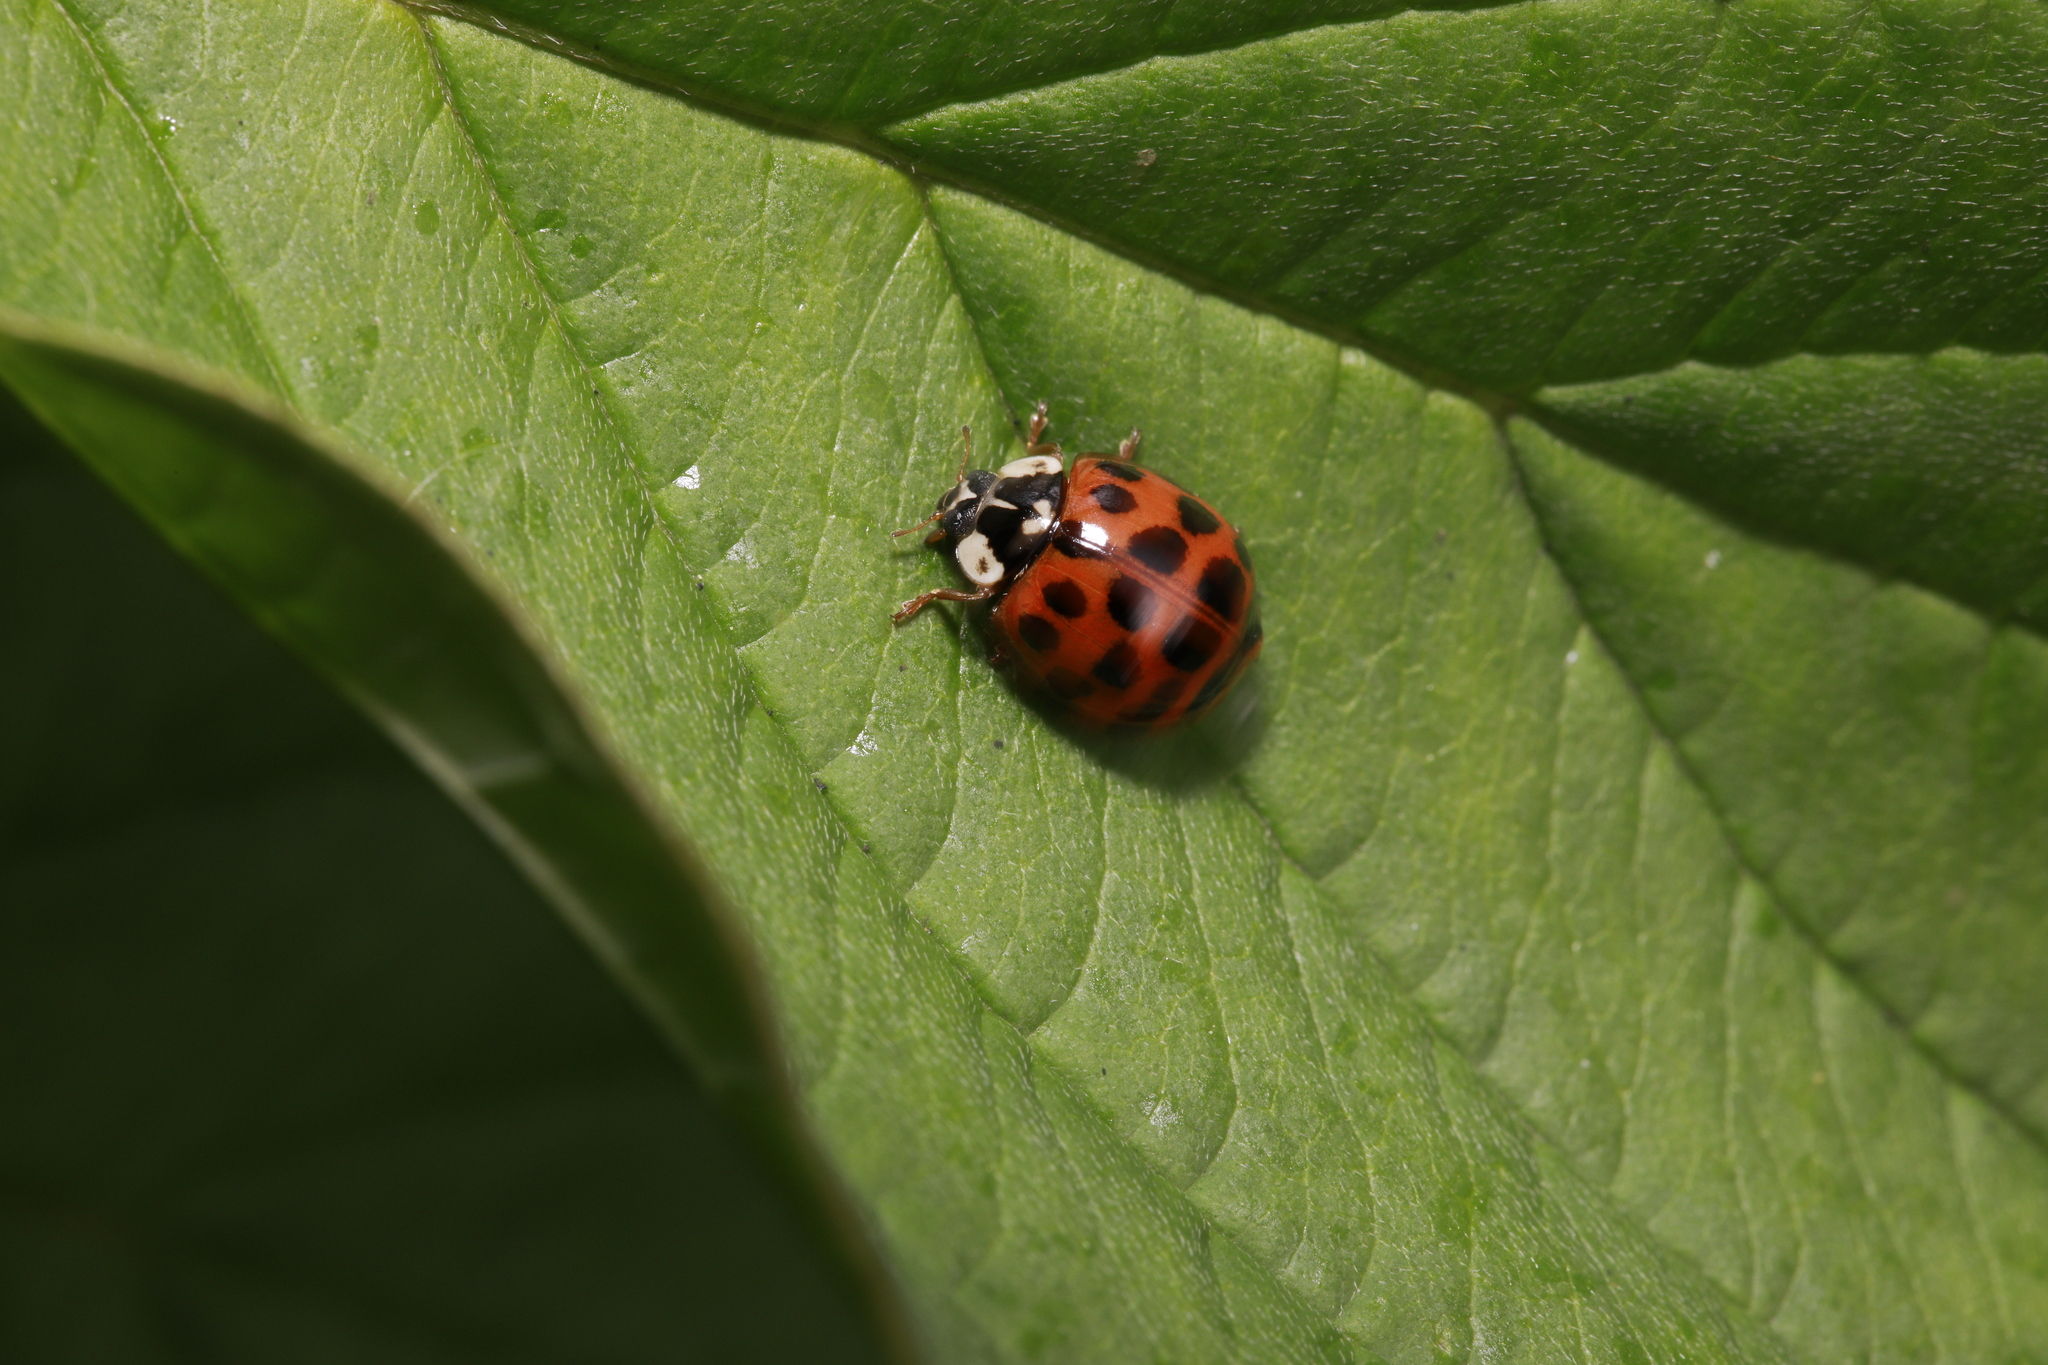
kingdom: Animalia
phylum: Arthropoda
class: Insecta
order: Coleoptera
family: Coccinellidae
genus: Harmonia
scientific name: Harmonia axyridis
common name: Harlequin ladybird
